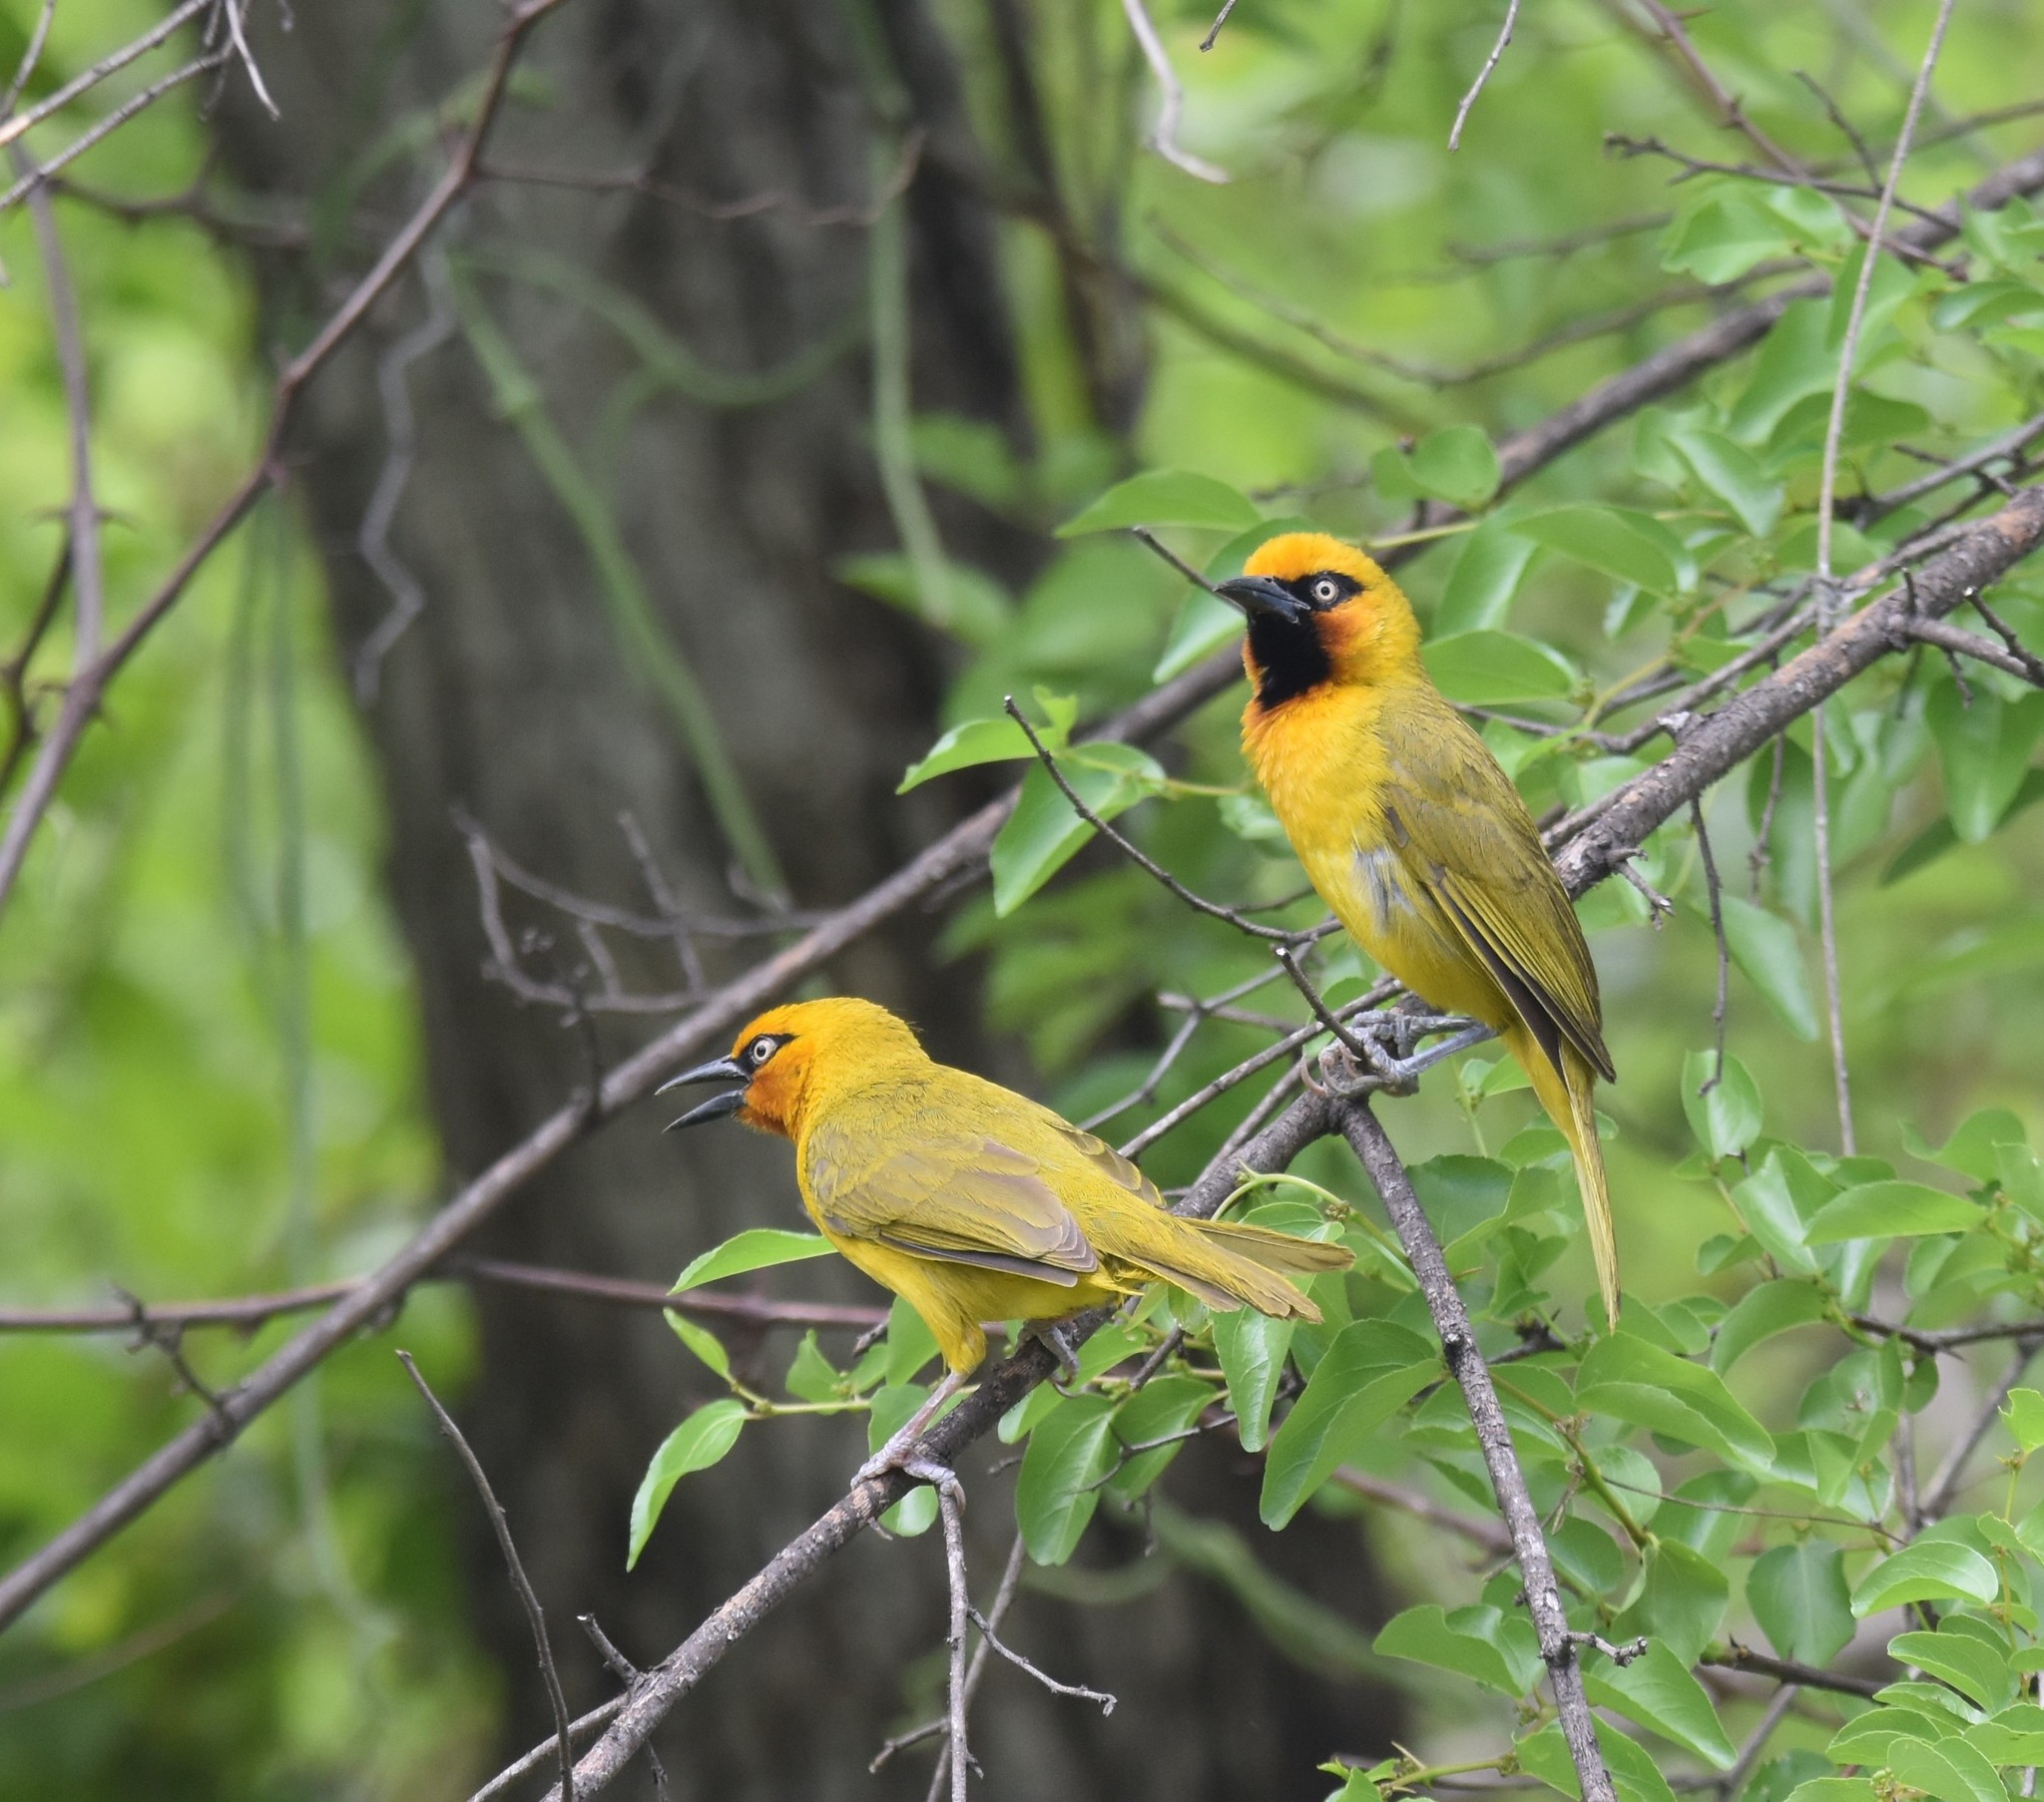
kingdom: Animalia
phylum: Chordata
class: Aves
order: Passeriformes
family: Ploceidae
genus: Ploceus
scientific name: Ploceus ocularis
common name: Spectacled weaver
